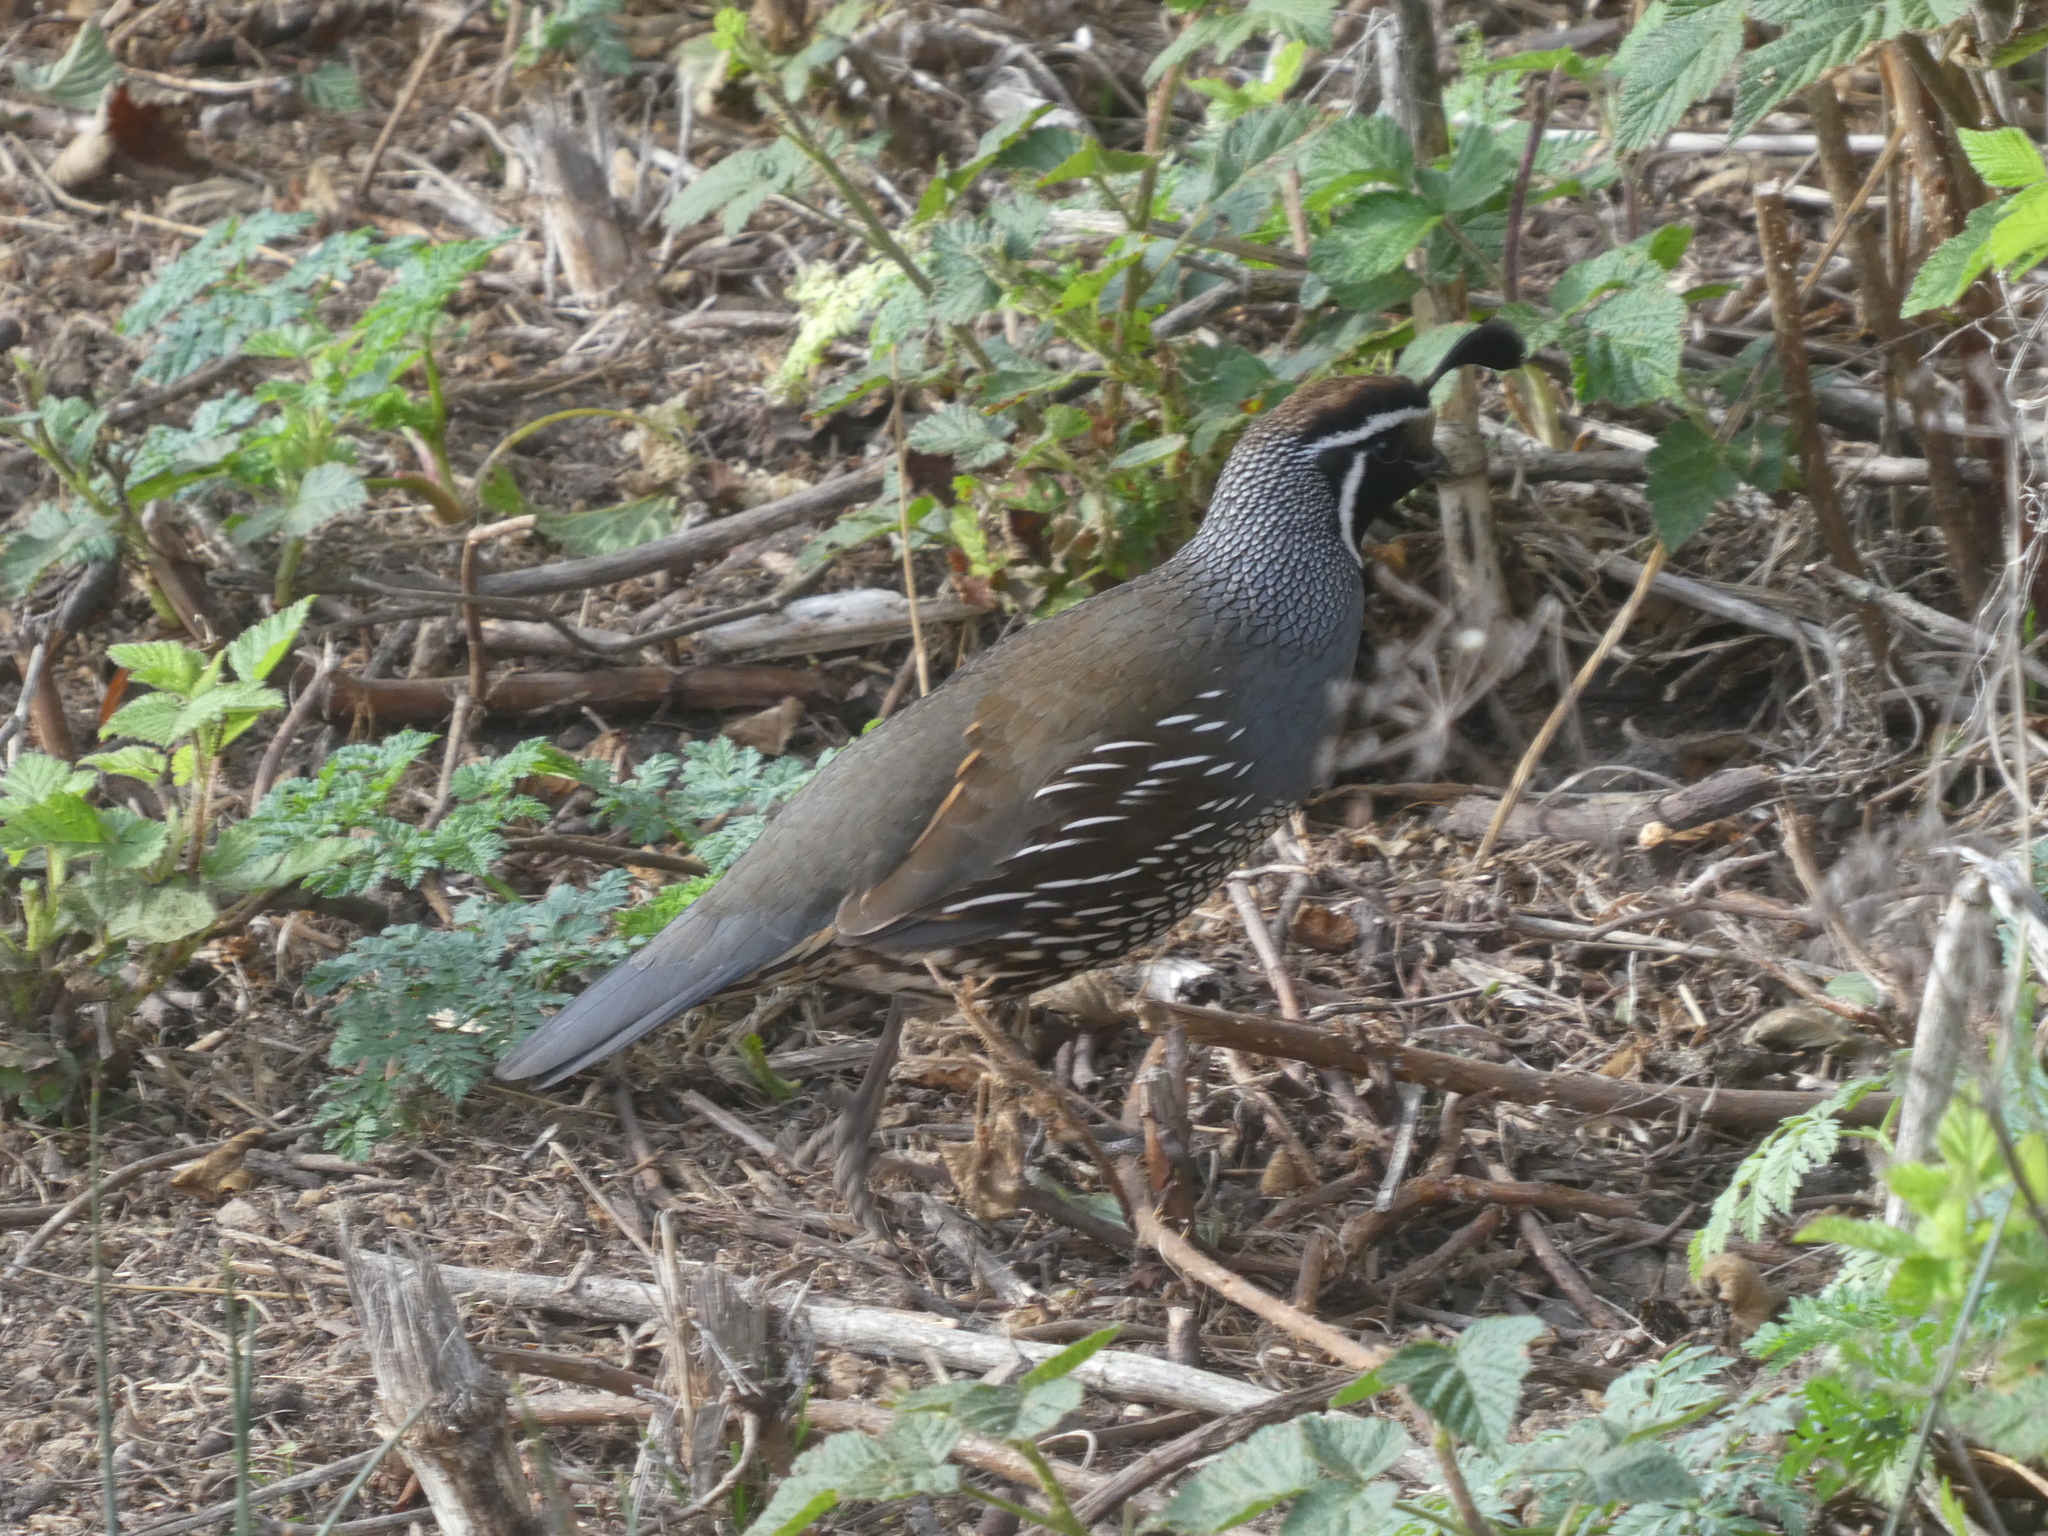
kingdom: Animalia
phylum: Chordata
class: Aves
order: Galliformes
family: Odontophoridae
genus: Callipepla
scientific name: Callipepla californica
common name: California quail
